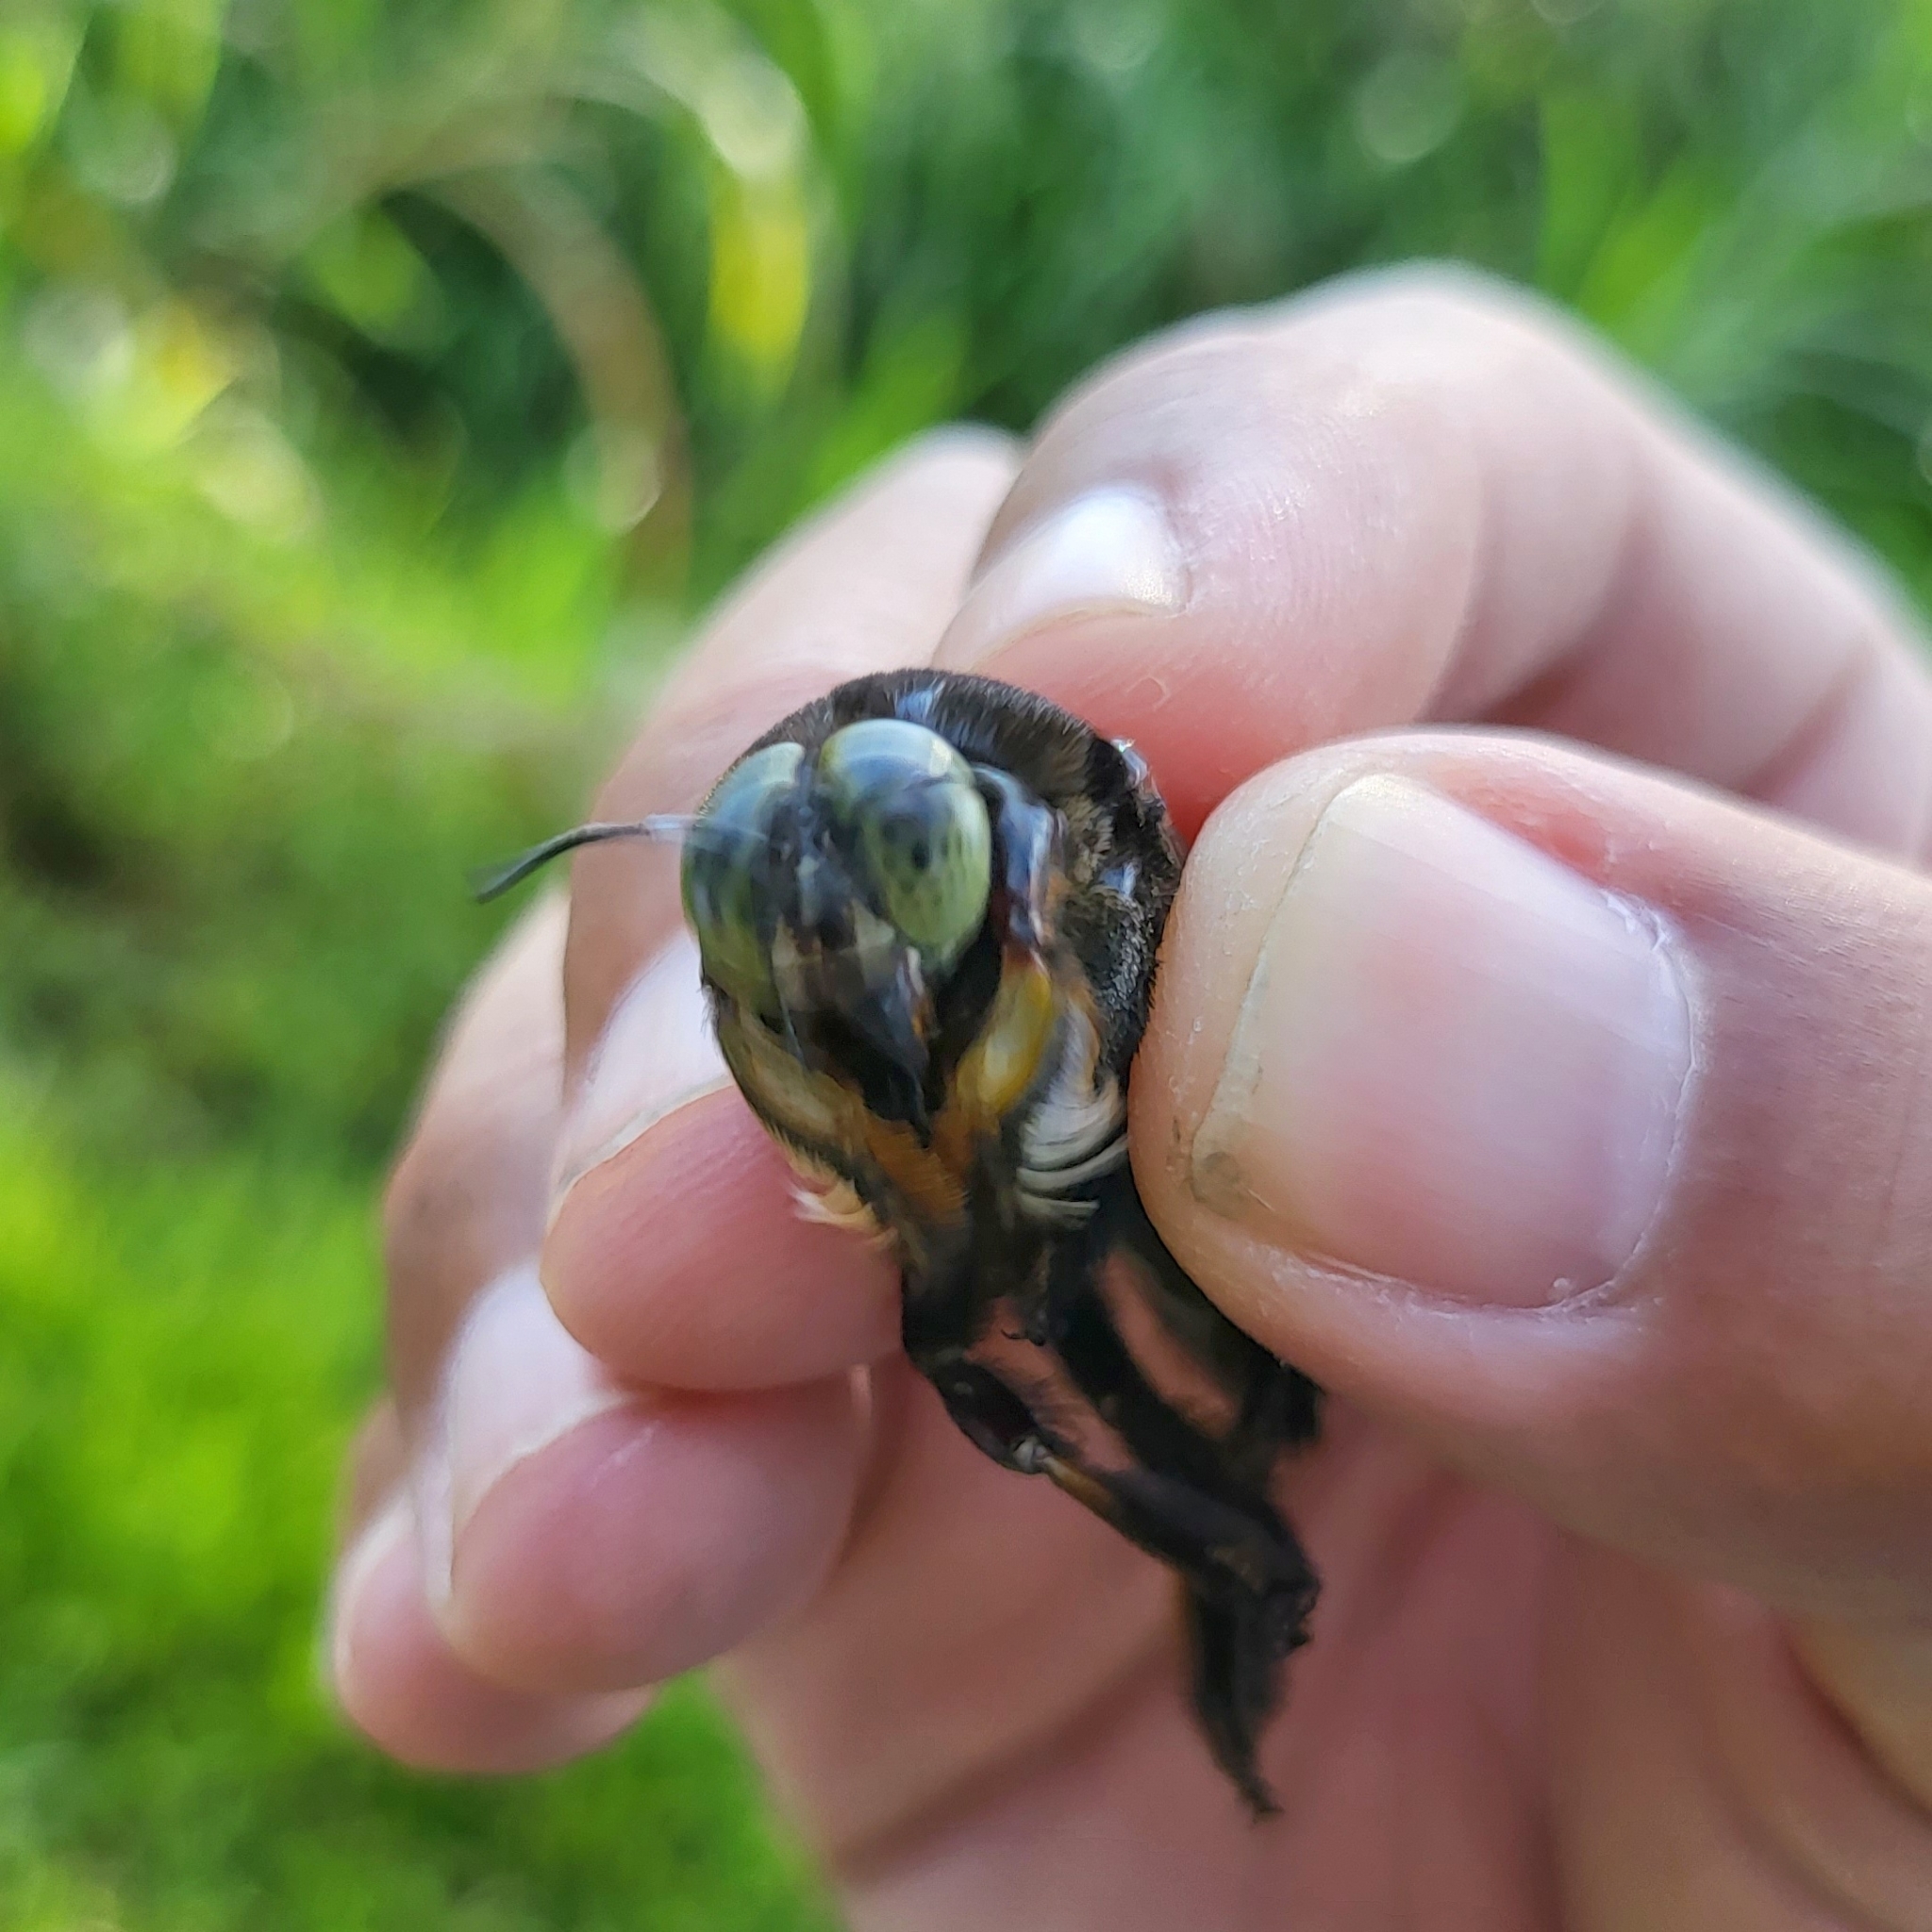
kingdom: Animalia
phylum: Arthropoda
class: Insecta
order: Hymenoptera
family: Apidae
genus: Xylocopa
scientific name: Xylocopa latipes
